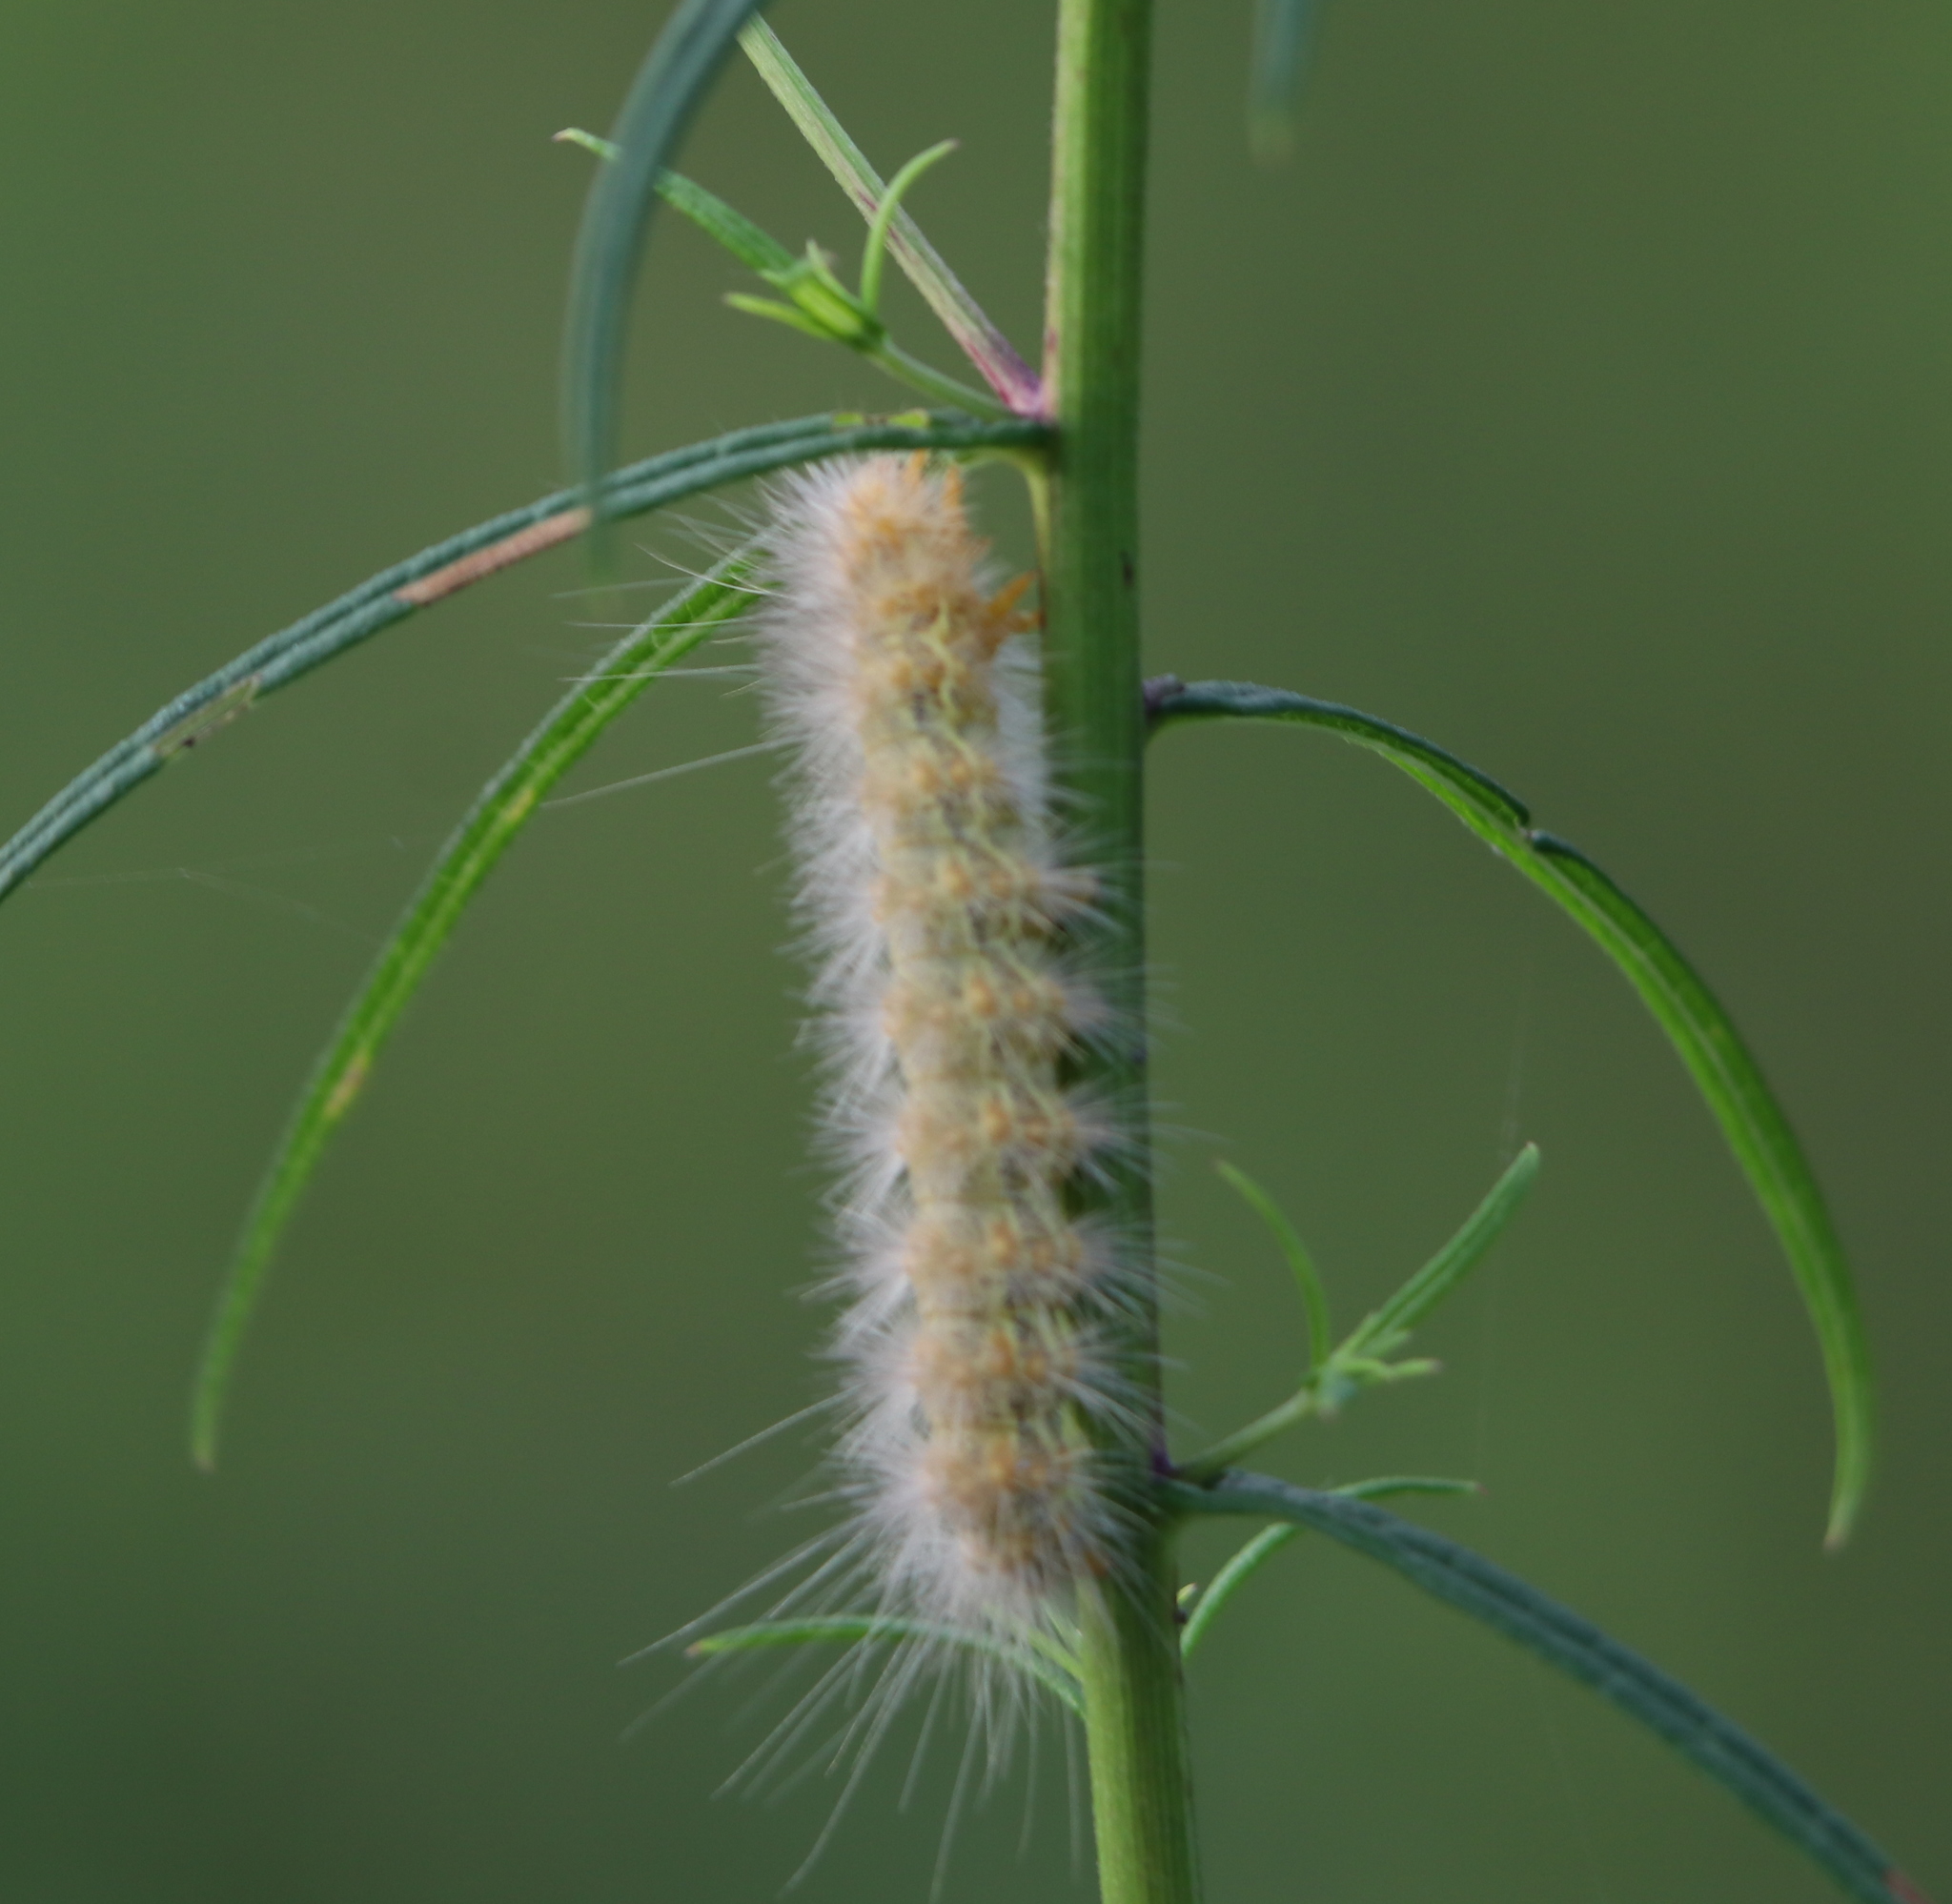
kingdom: Animalia
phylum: Arthropoda
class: Insecta
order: Lepidoptera
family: Erebidae
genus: Estigmene
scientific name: Estigmene acrea
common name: Salt marsh moth
